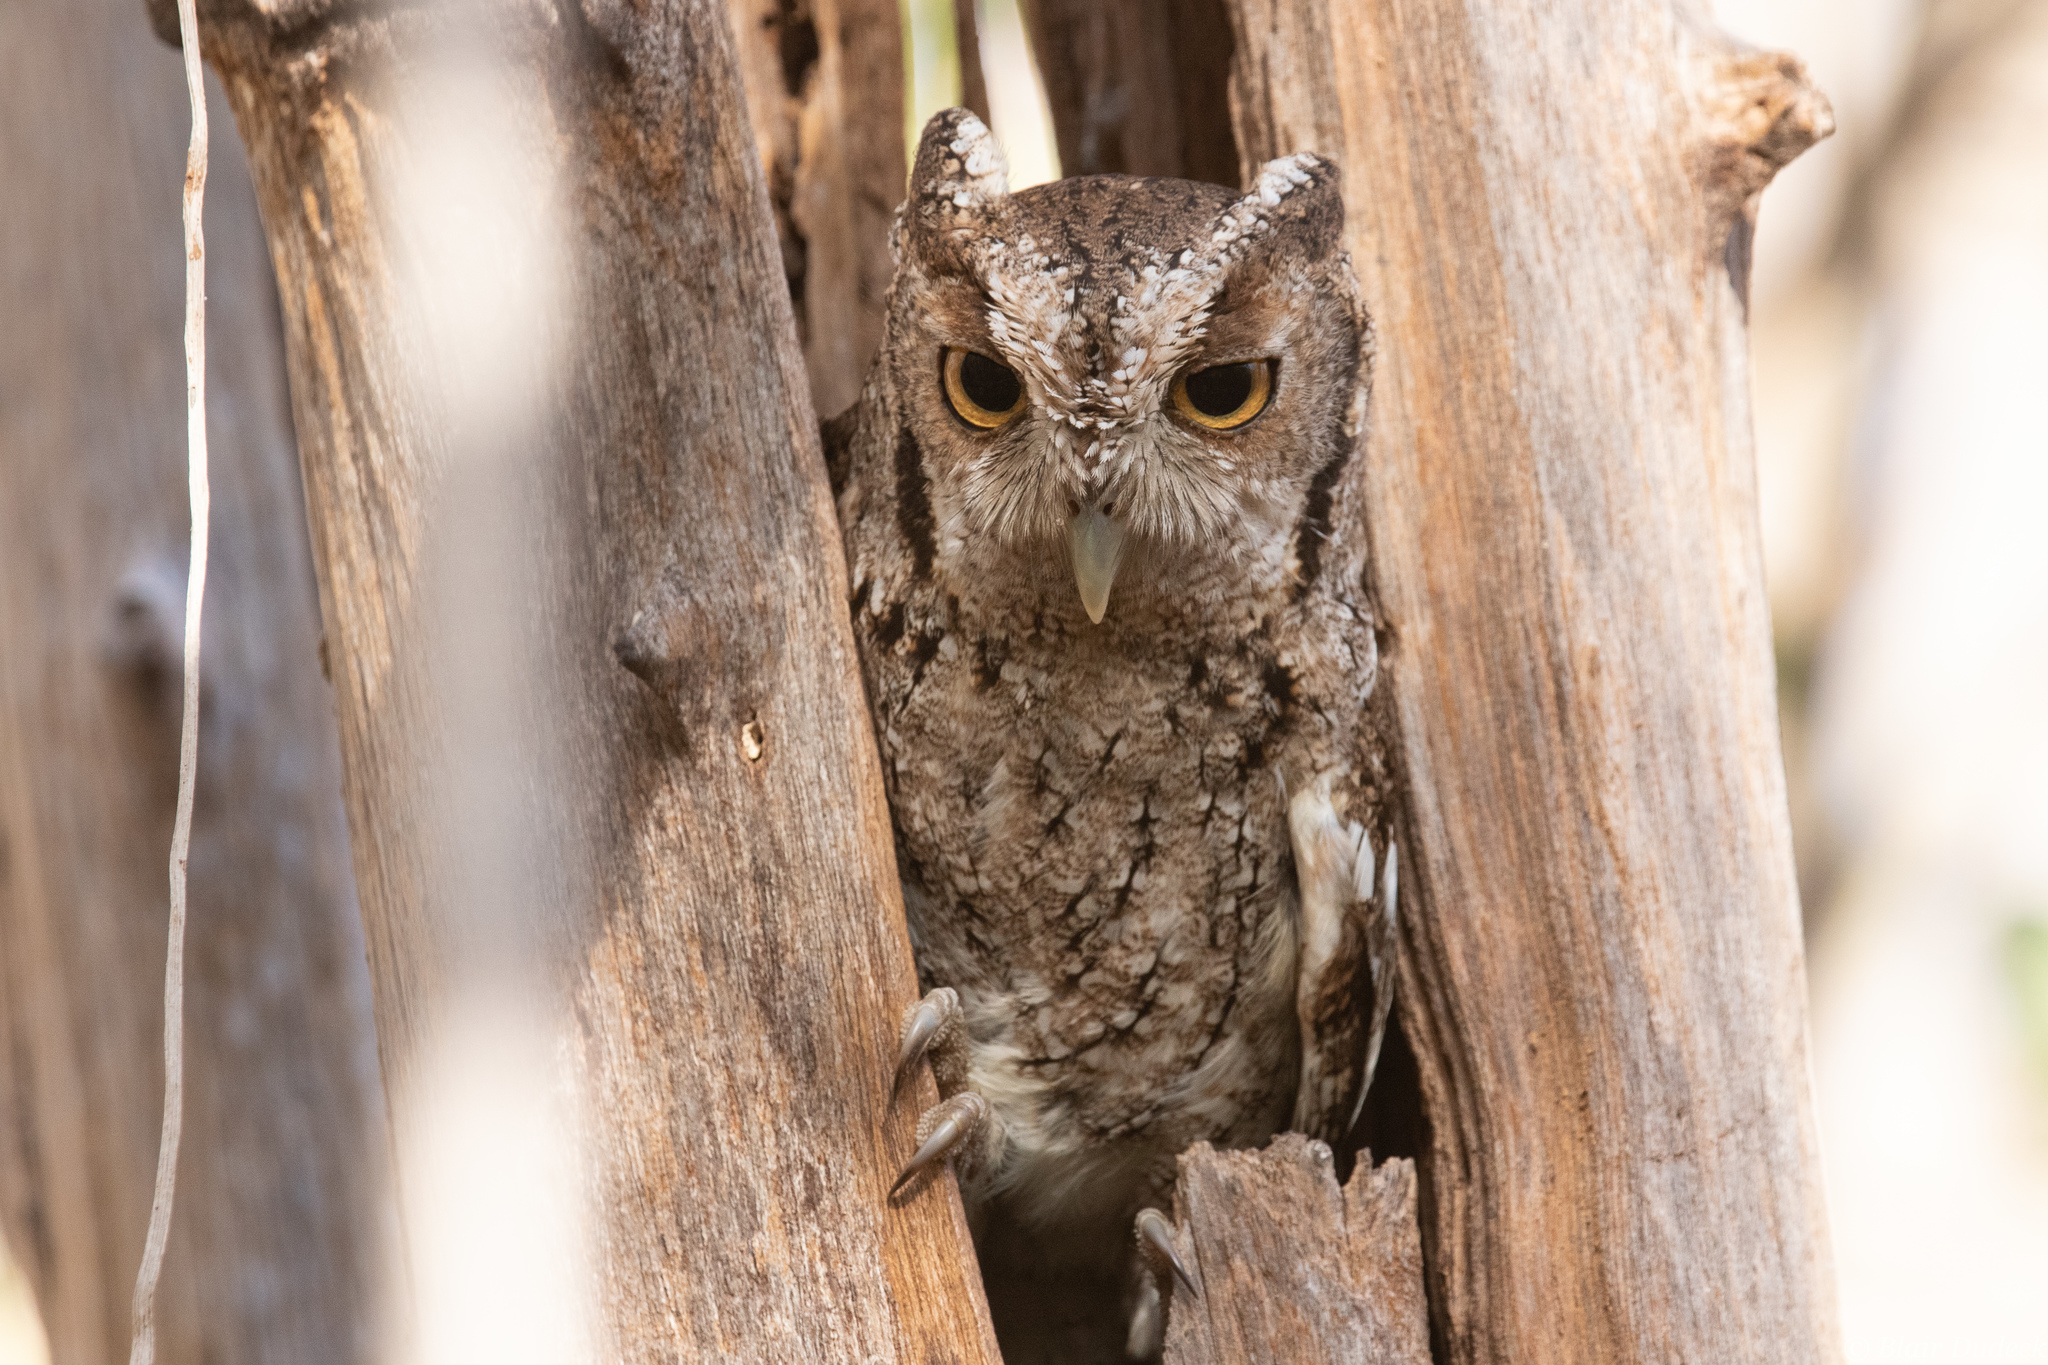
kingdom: Animalia
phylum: Chordata
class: Aves
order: Strigiformes
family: Strigidae
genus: Megascops
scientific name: Megascops cooperi
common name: Pacific screech-owl
